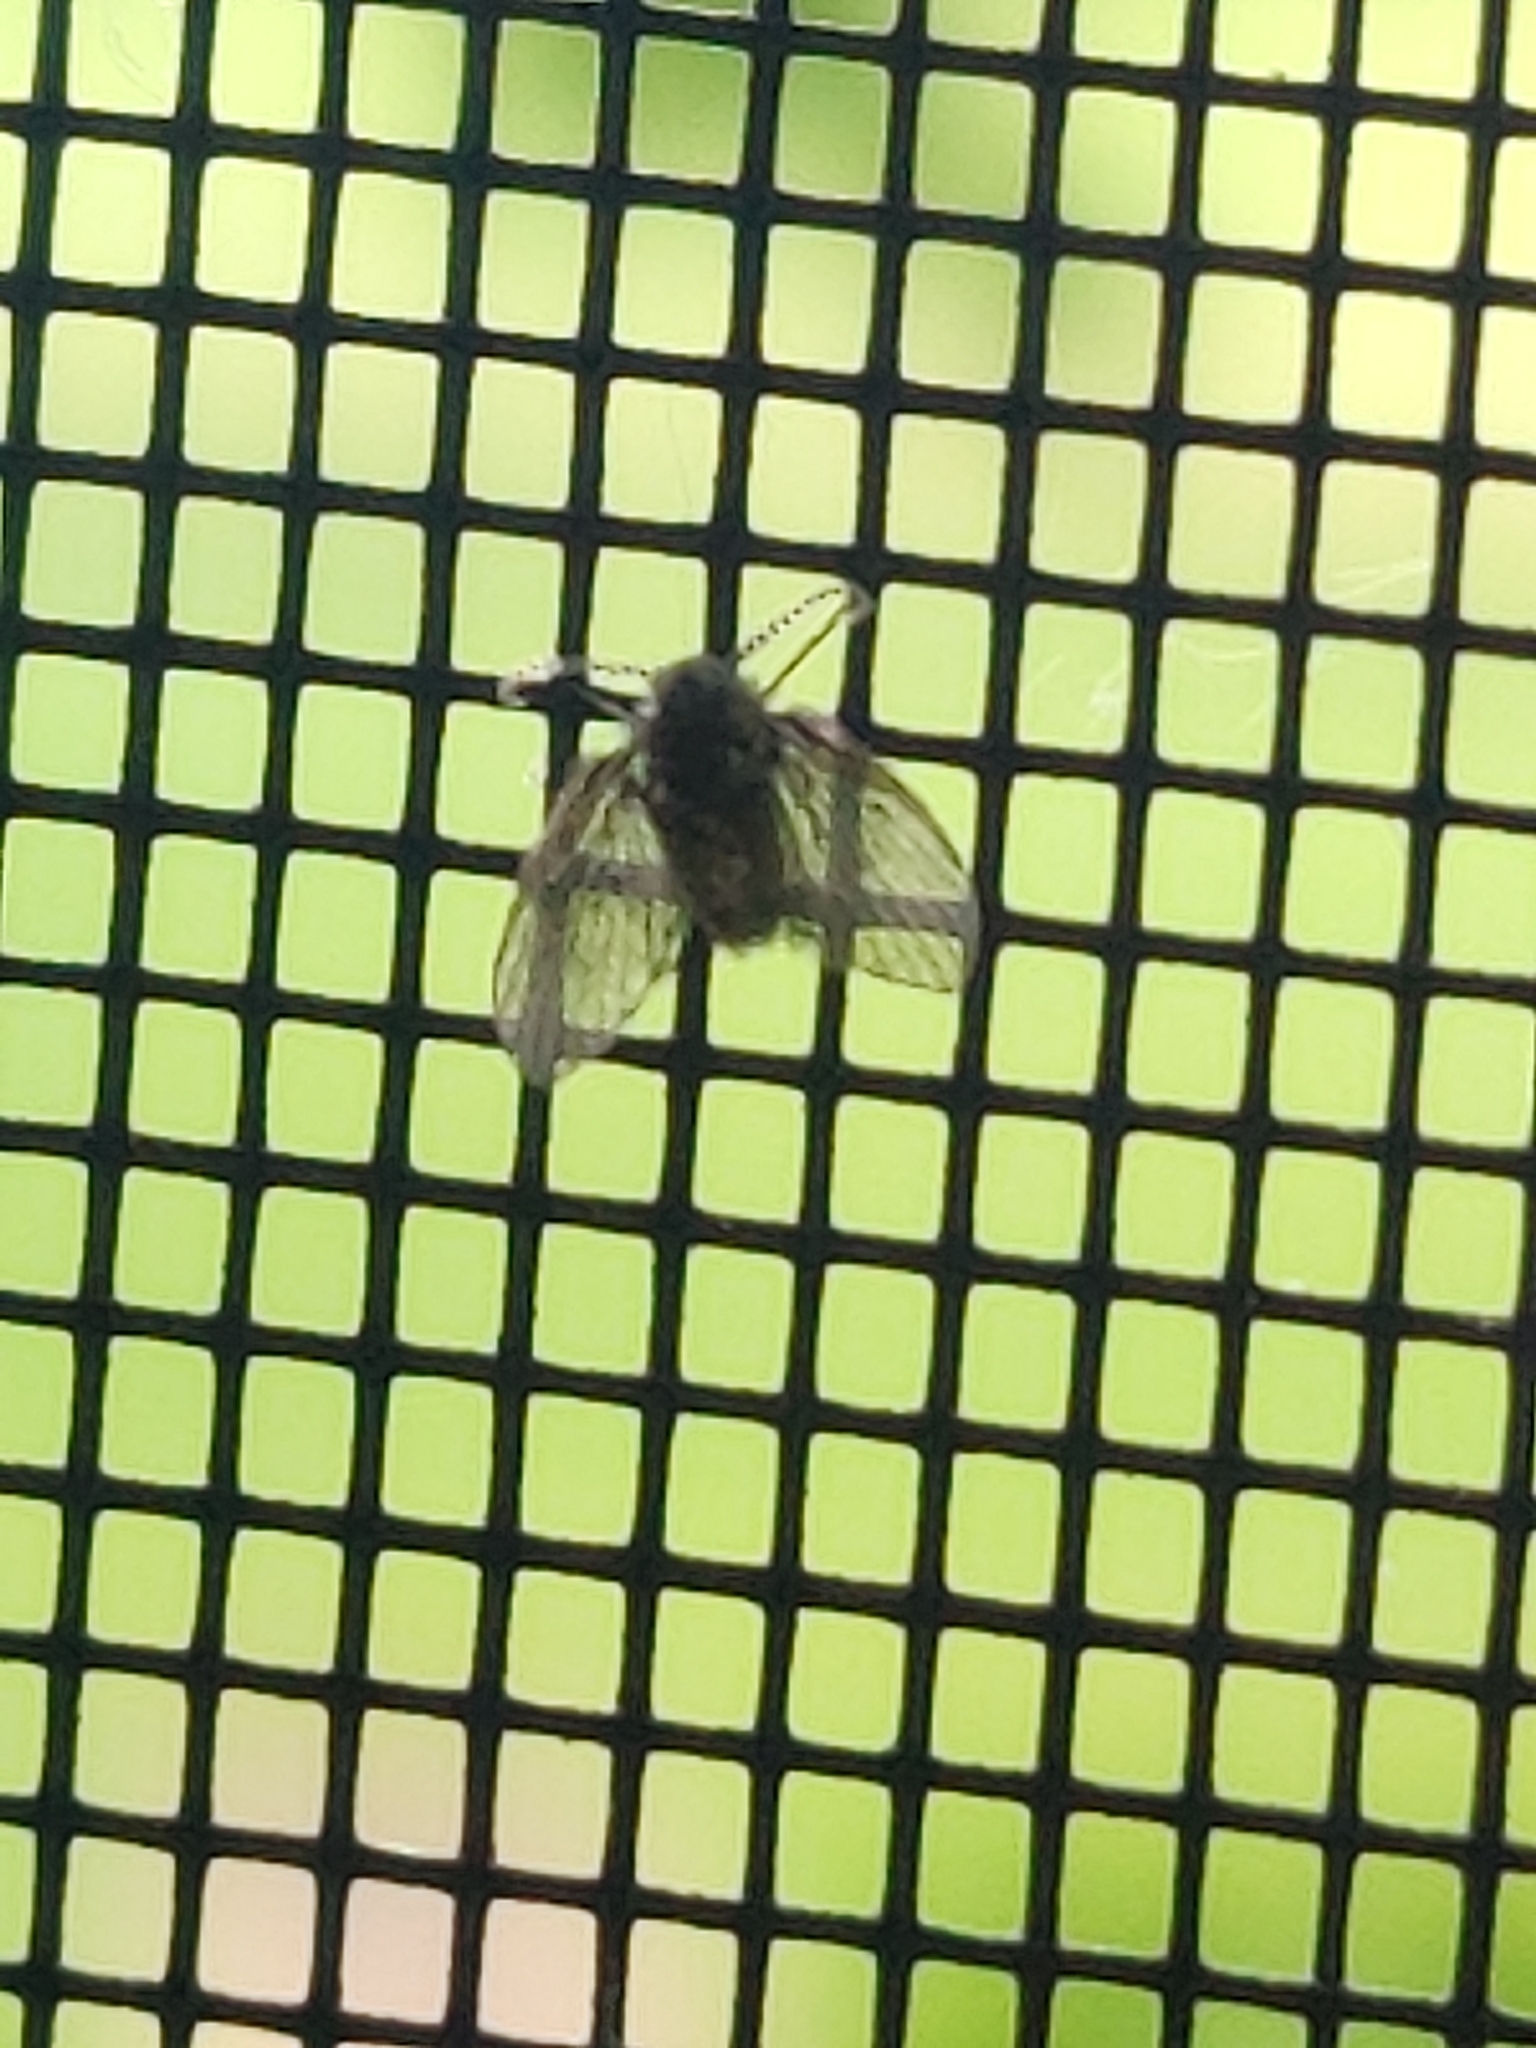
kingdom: Animalia
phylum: Arthropoda
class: Insecta
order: Diptera
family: Psychodidae
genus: Clogmia
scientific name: Clogmia albipunctatus
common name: White-spotted moth fly
